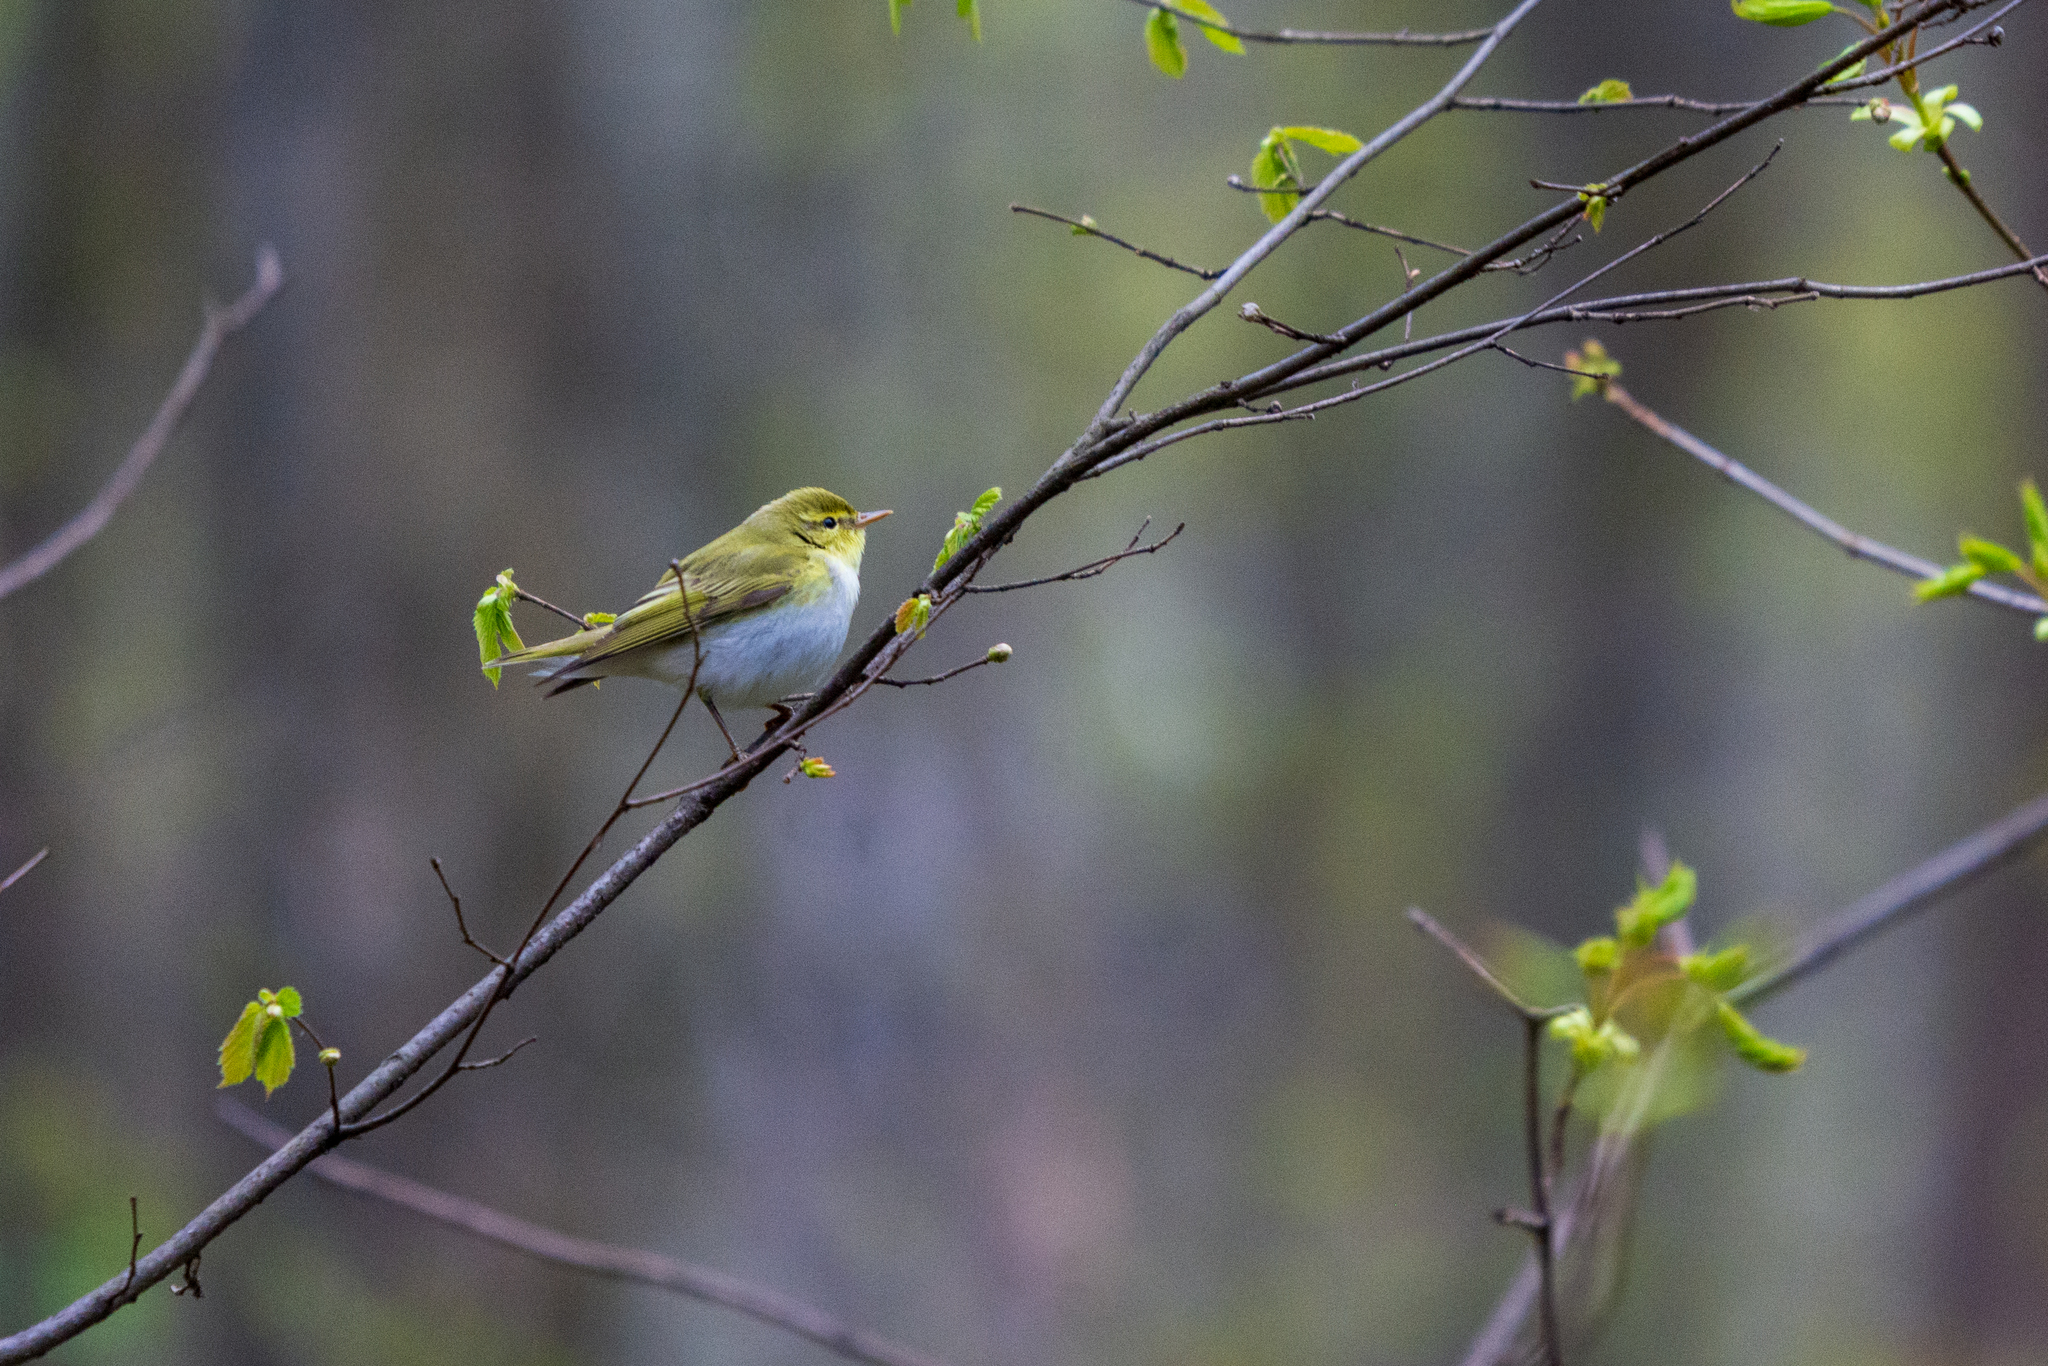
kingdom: Animalia
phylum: Chordata
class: Aves
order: Passeriformes
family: Phylloscopidae
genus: Phylloscopus
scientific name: Phylloscopus sibillatrix
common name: Wood warbler
